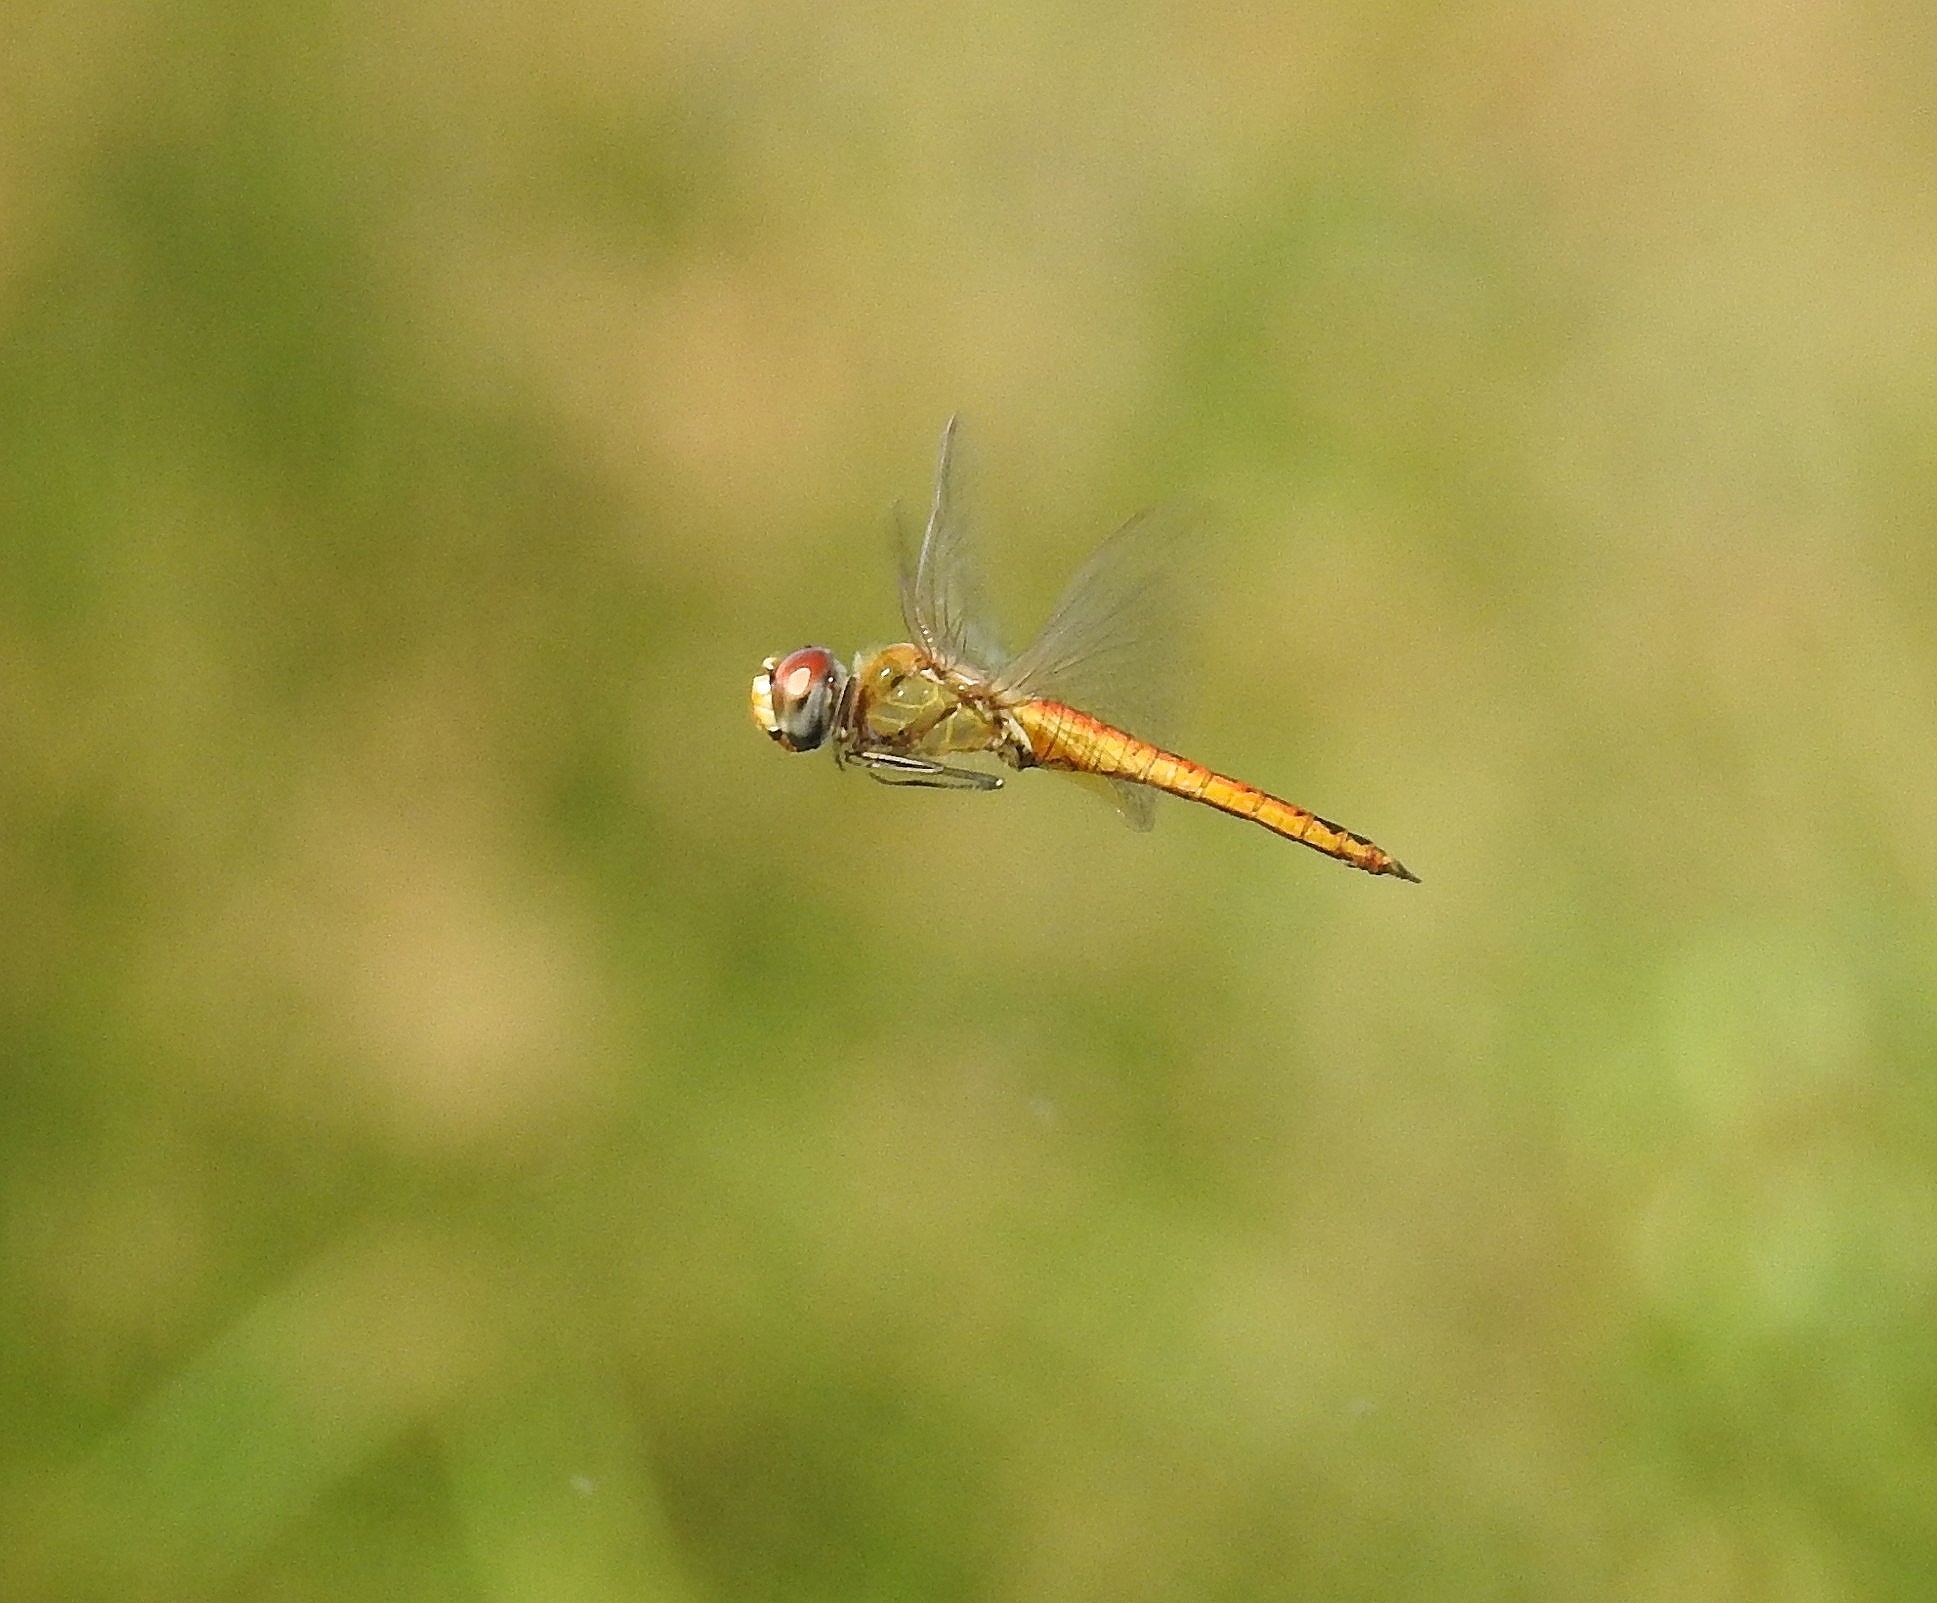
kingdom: Animalia
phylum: Arthropoda
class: Insecta
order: Odonata
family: Libellulidae
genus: Pantala
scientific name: Pantala flavescens
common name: Wandering glider
